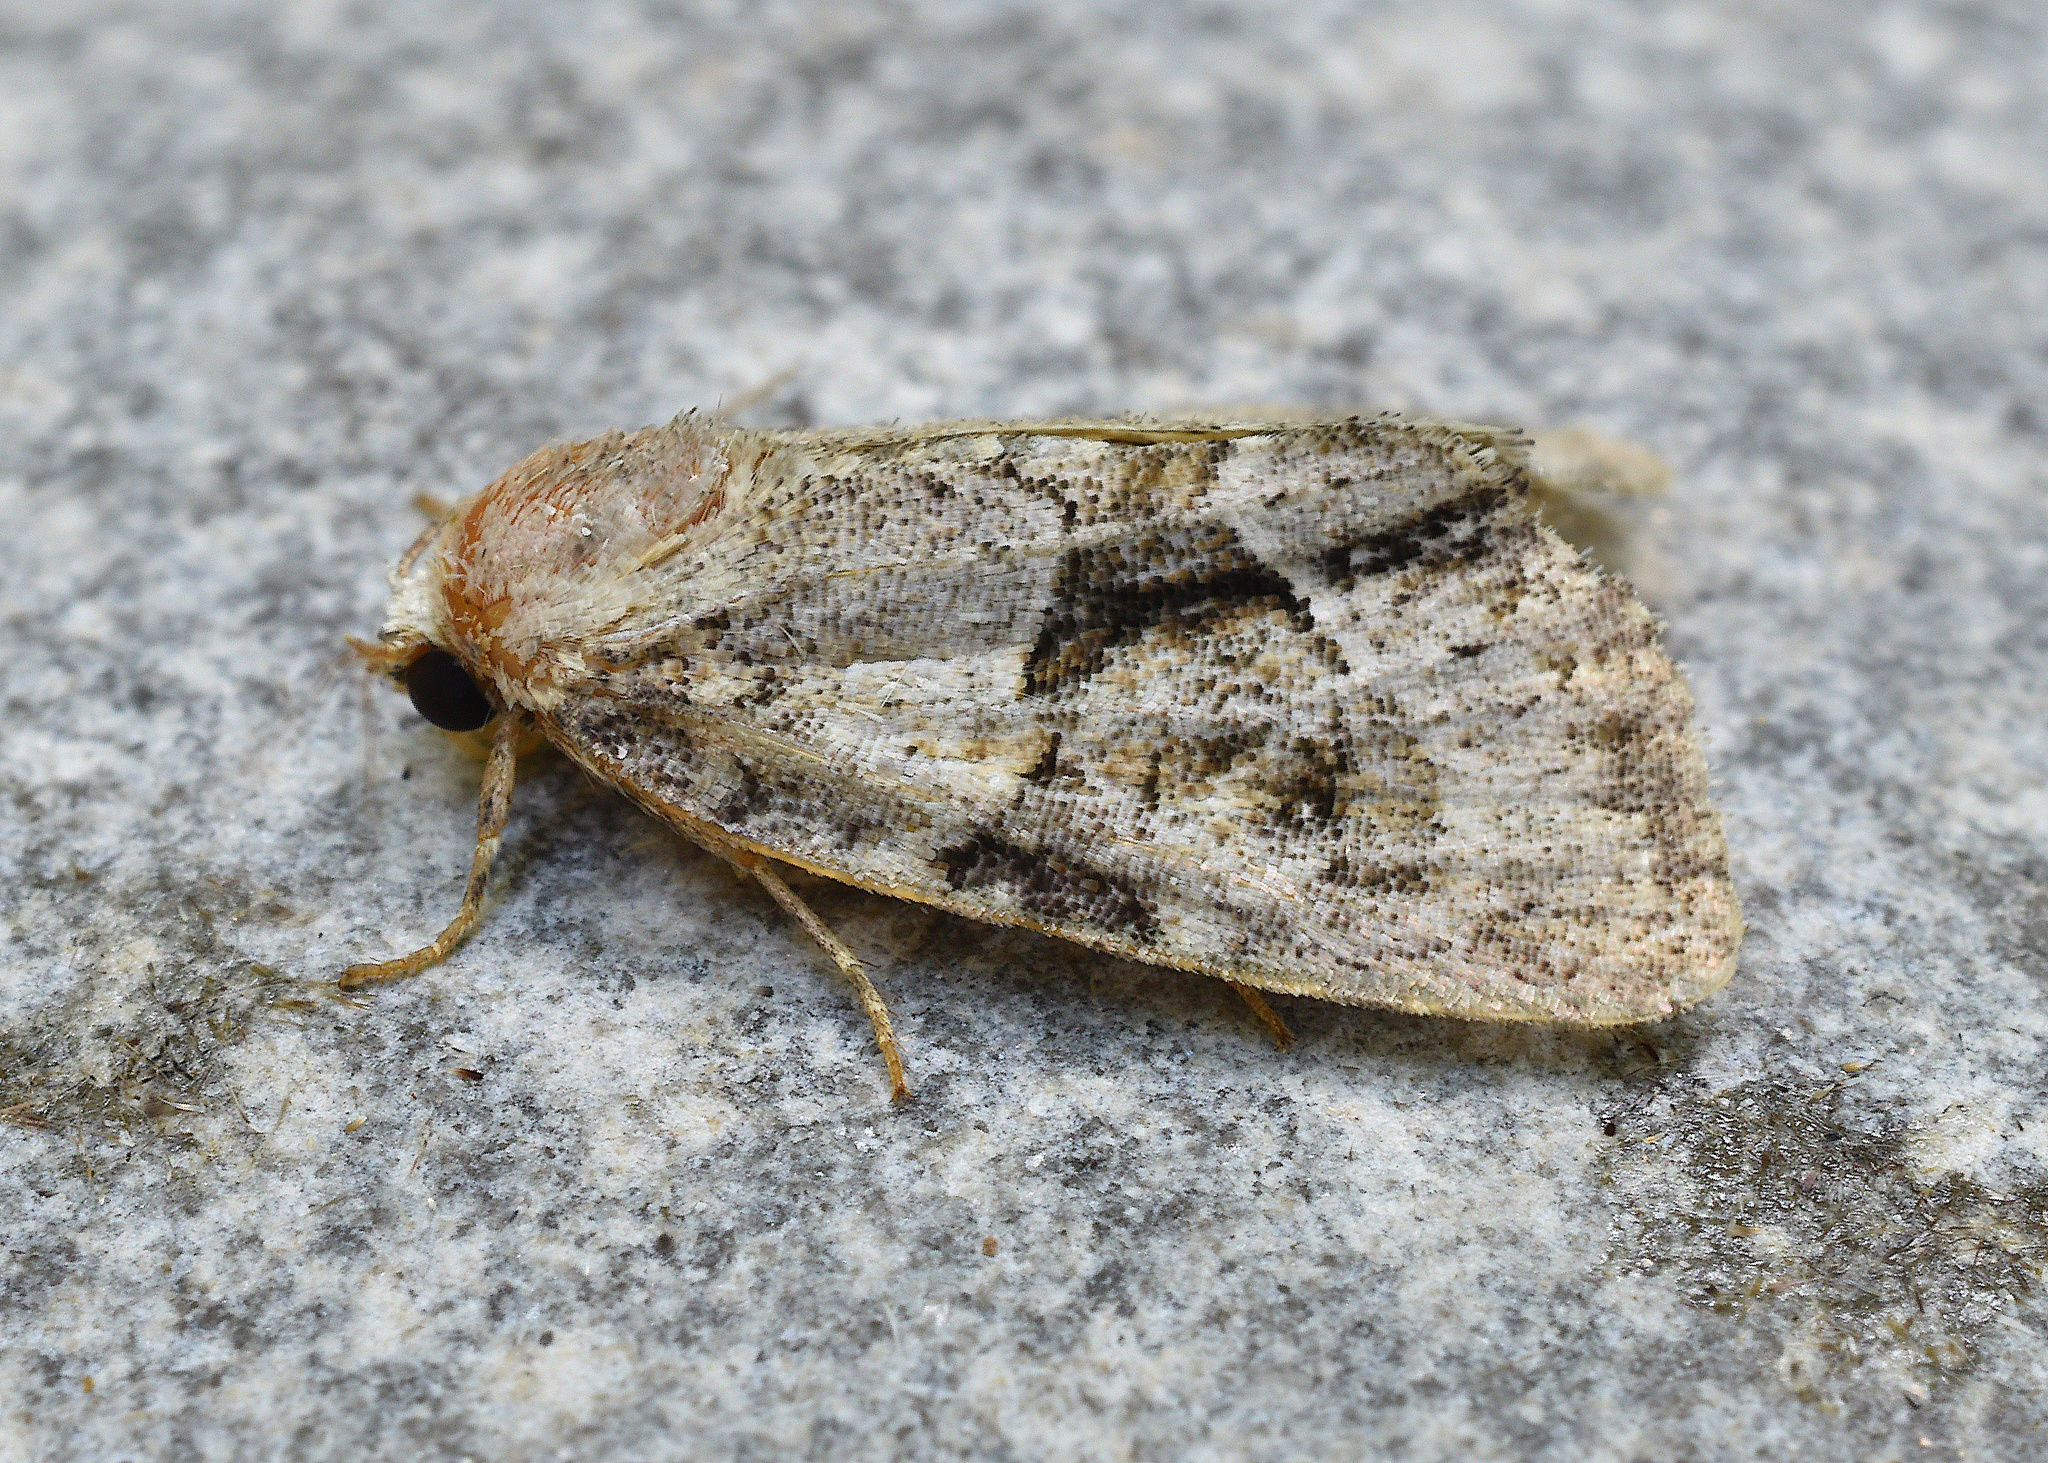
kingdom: Animalia
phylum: Arthropoda
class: Insecta
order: Lepidoptera
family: Noctuidae
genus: Neoligia
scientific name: Neoligia exhausta
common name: Exhausted brocade
